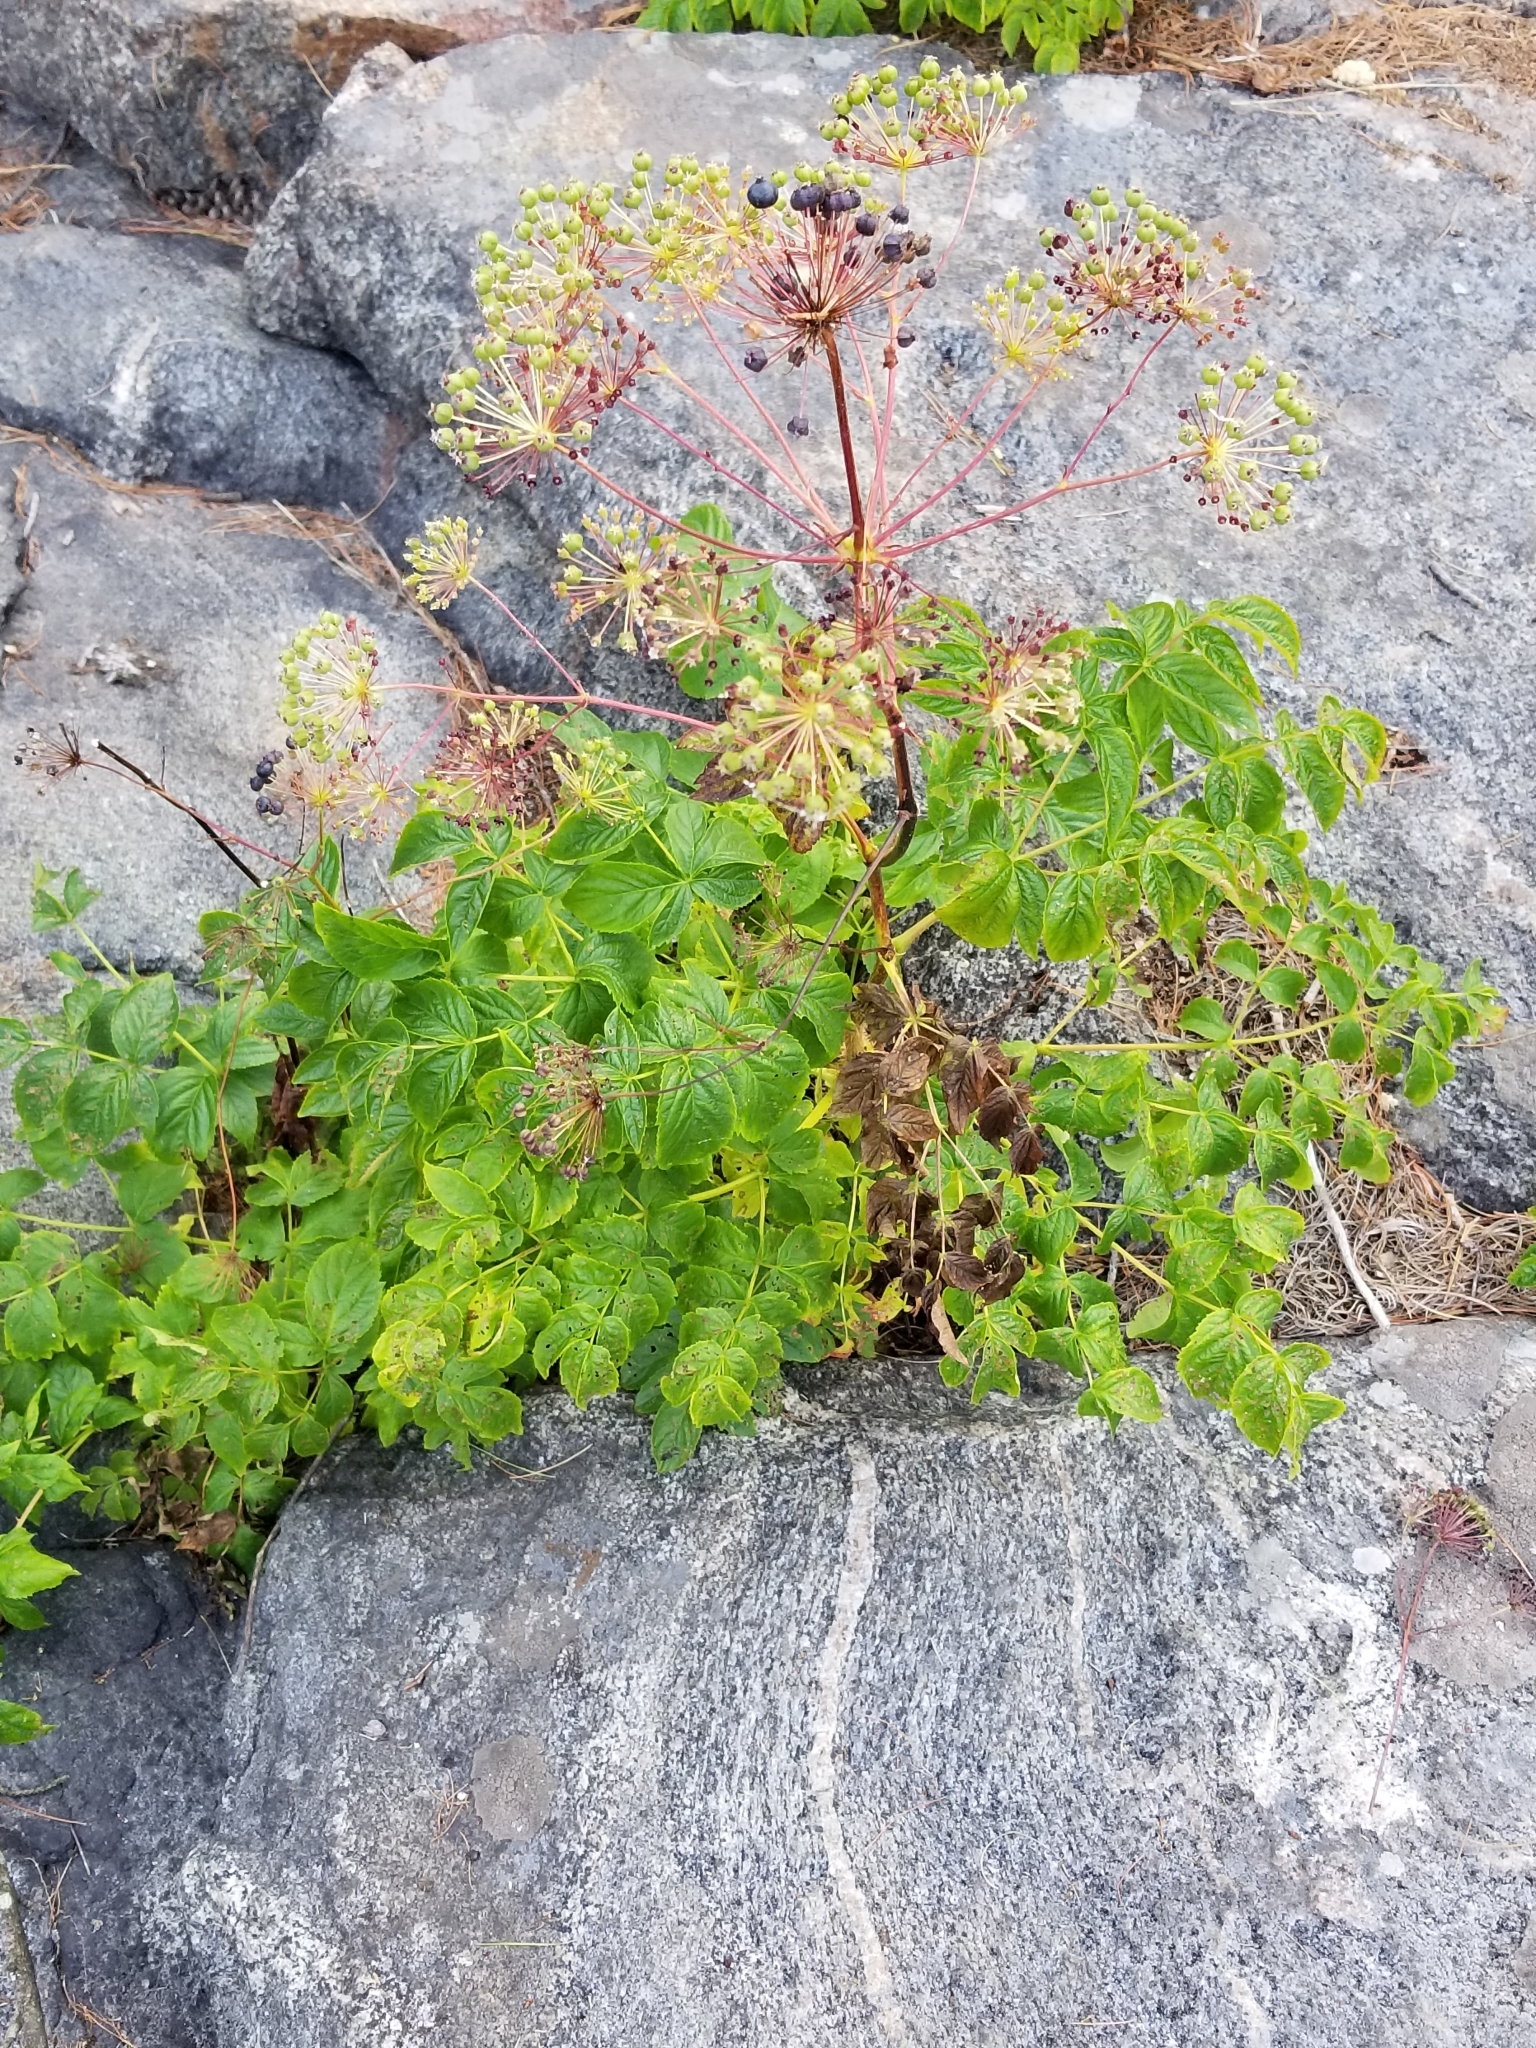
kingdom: Plantae
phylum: Tracheophyta
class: Magnoliopsida
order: Apiales
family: Araliaceae
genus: Aralia
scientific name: Aralia hispida
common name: Bristly sarsaparilla
